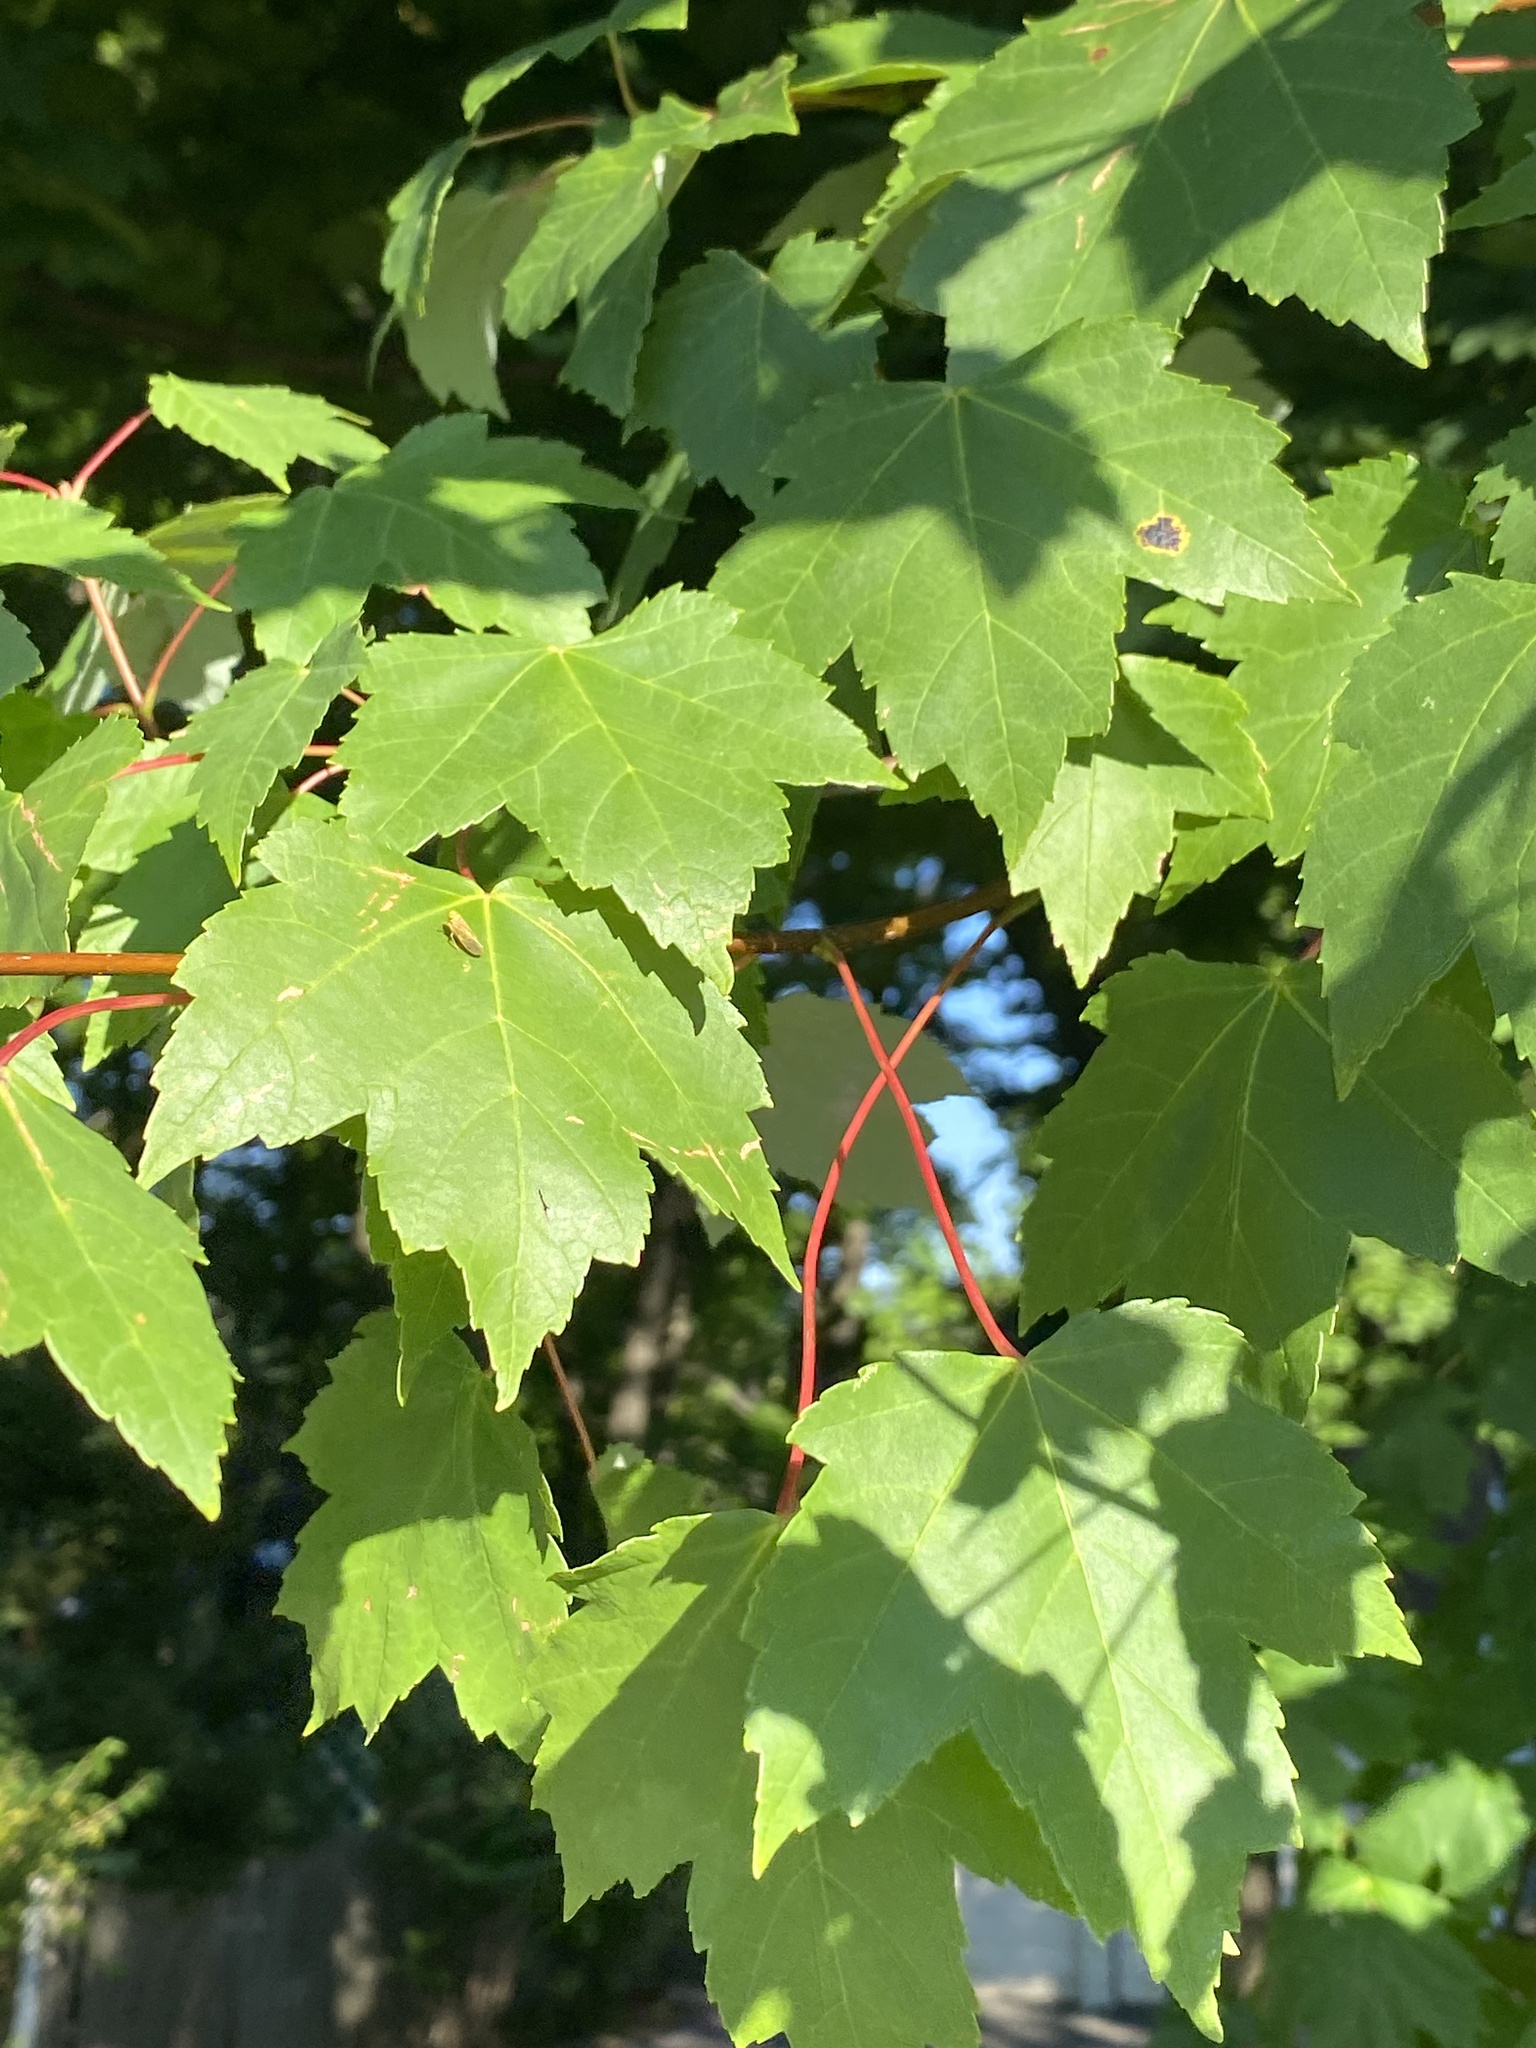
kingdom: Plantae
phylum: Tracheophyta
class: Magnoliopsida
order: Sapindales
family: Sapindaceae
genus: Acer
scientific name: Acer rubrum
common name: Red maple
